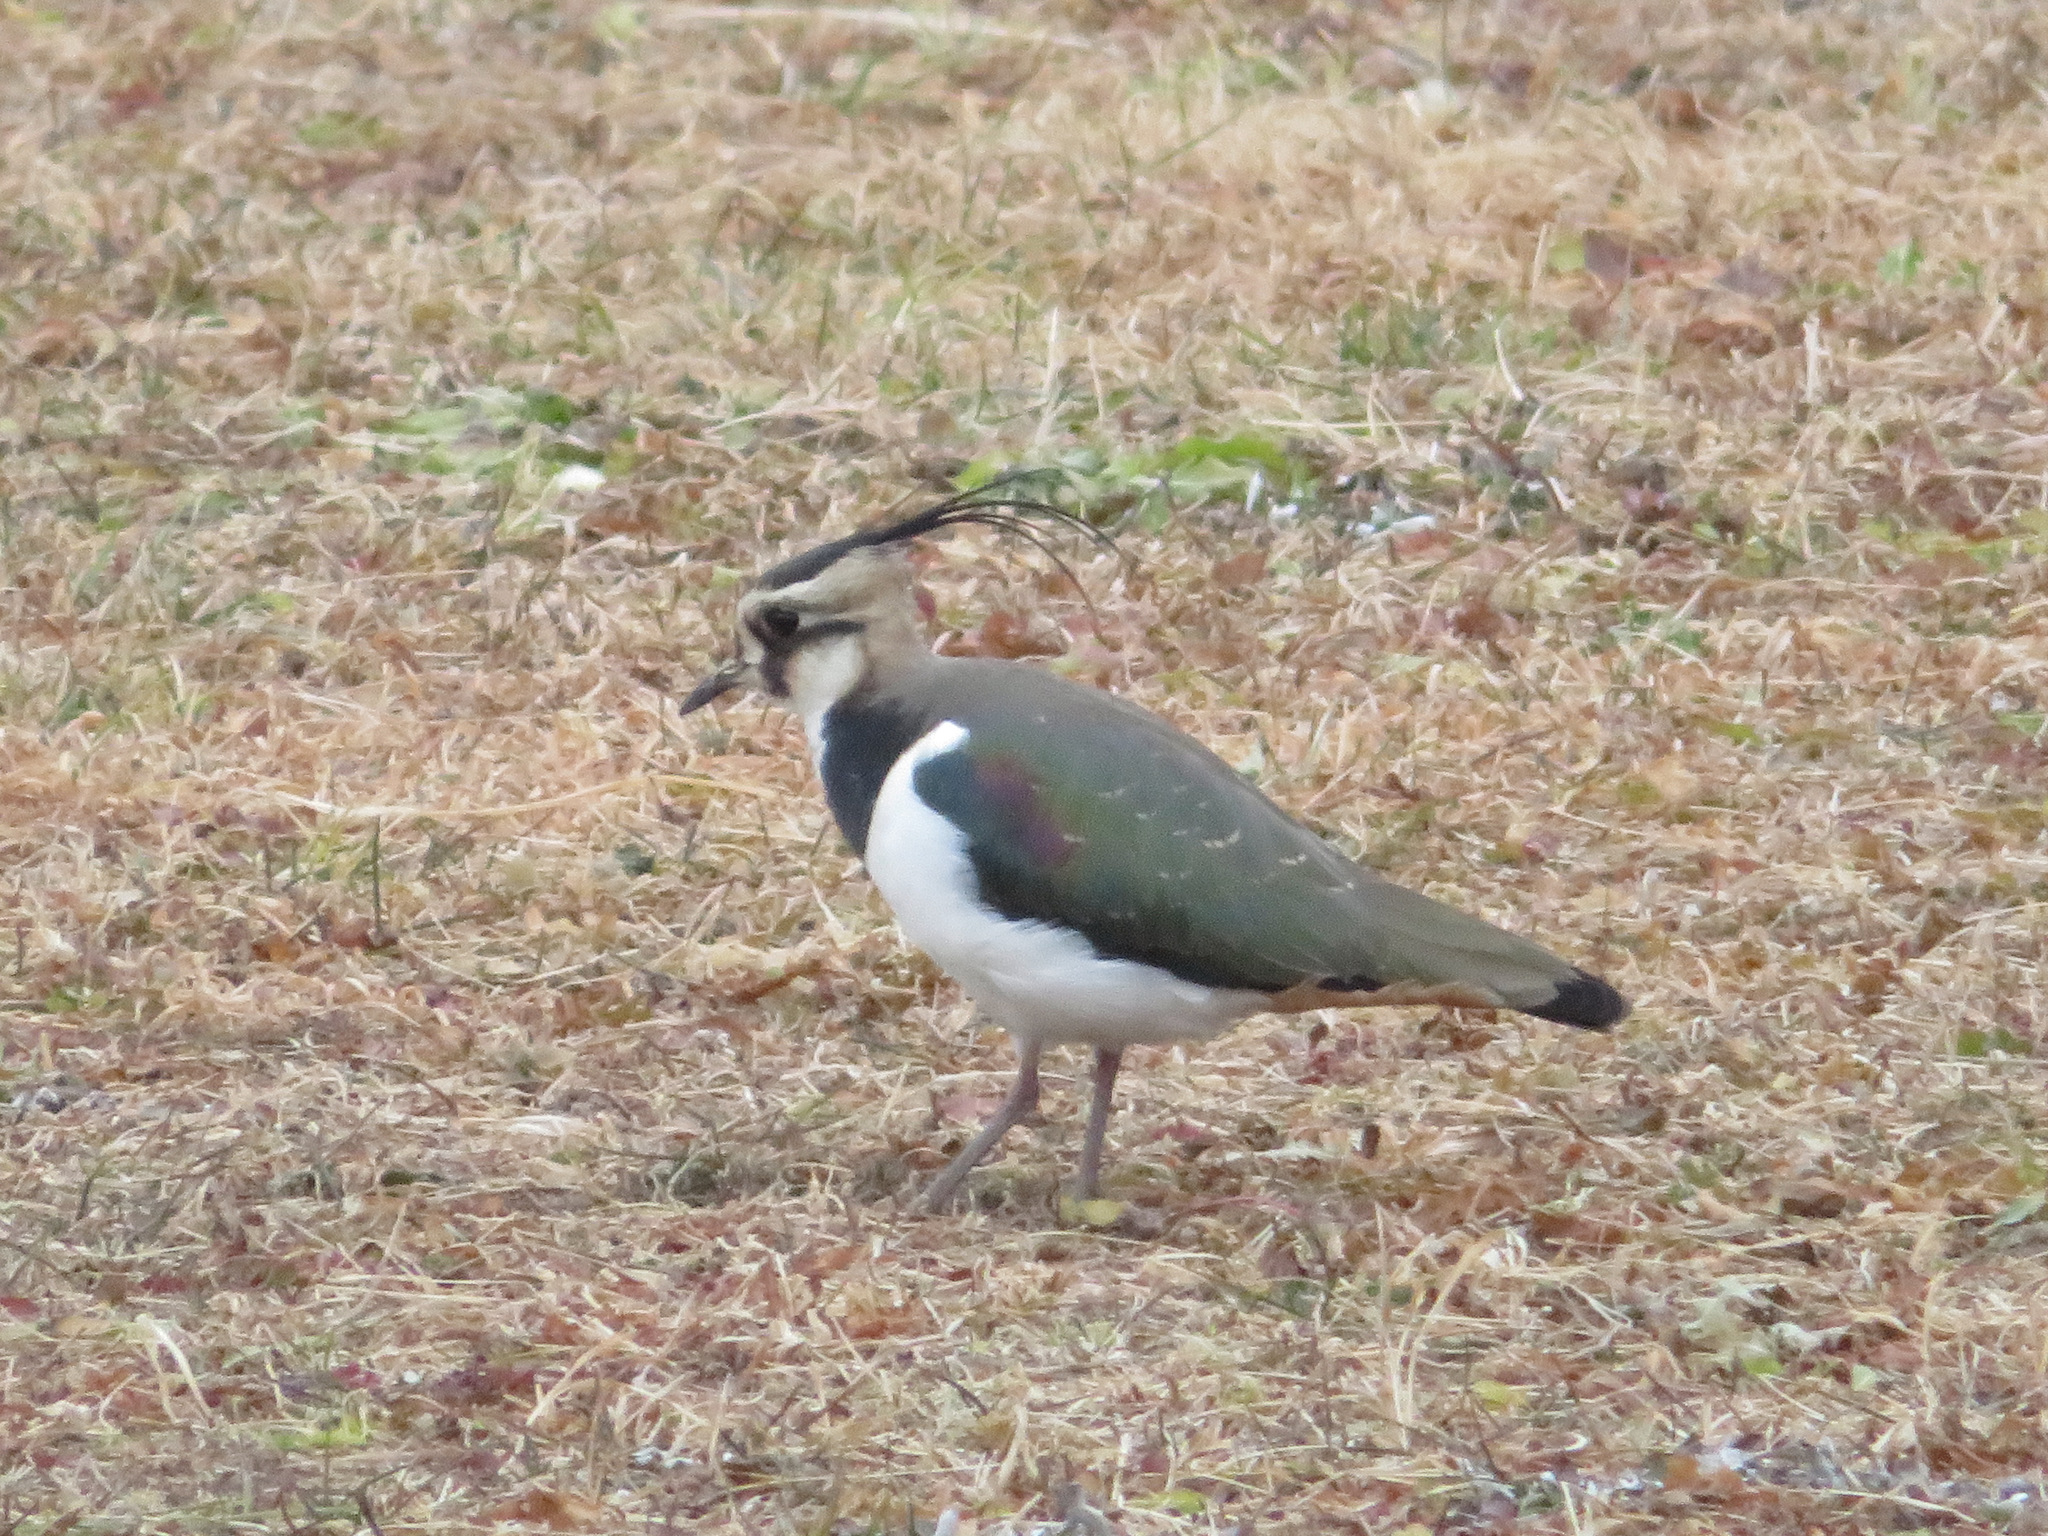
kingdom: Animalia
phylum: Chordata
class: Aves
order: Charadriiformes
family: Charadriidae
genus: Vanellus
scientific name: Vanellus vanellus
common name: Northern lapwing
